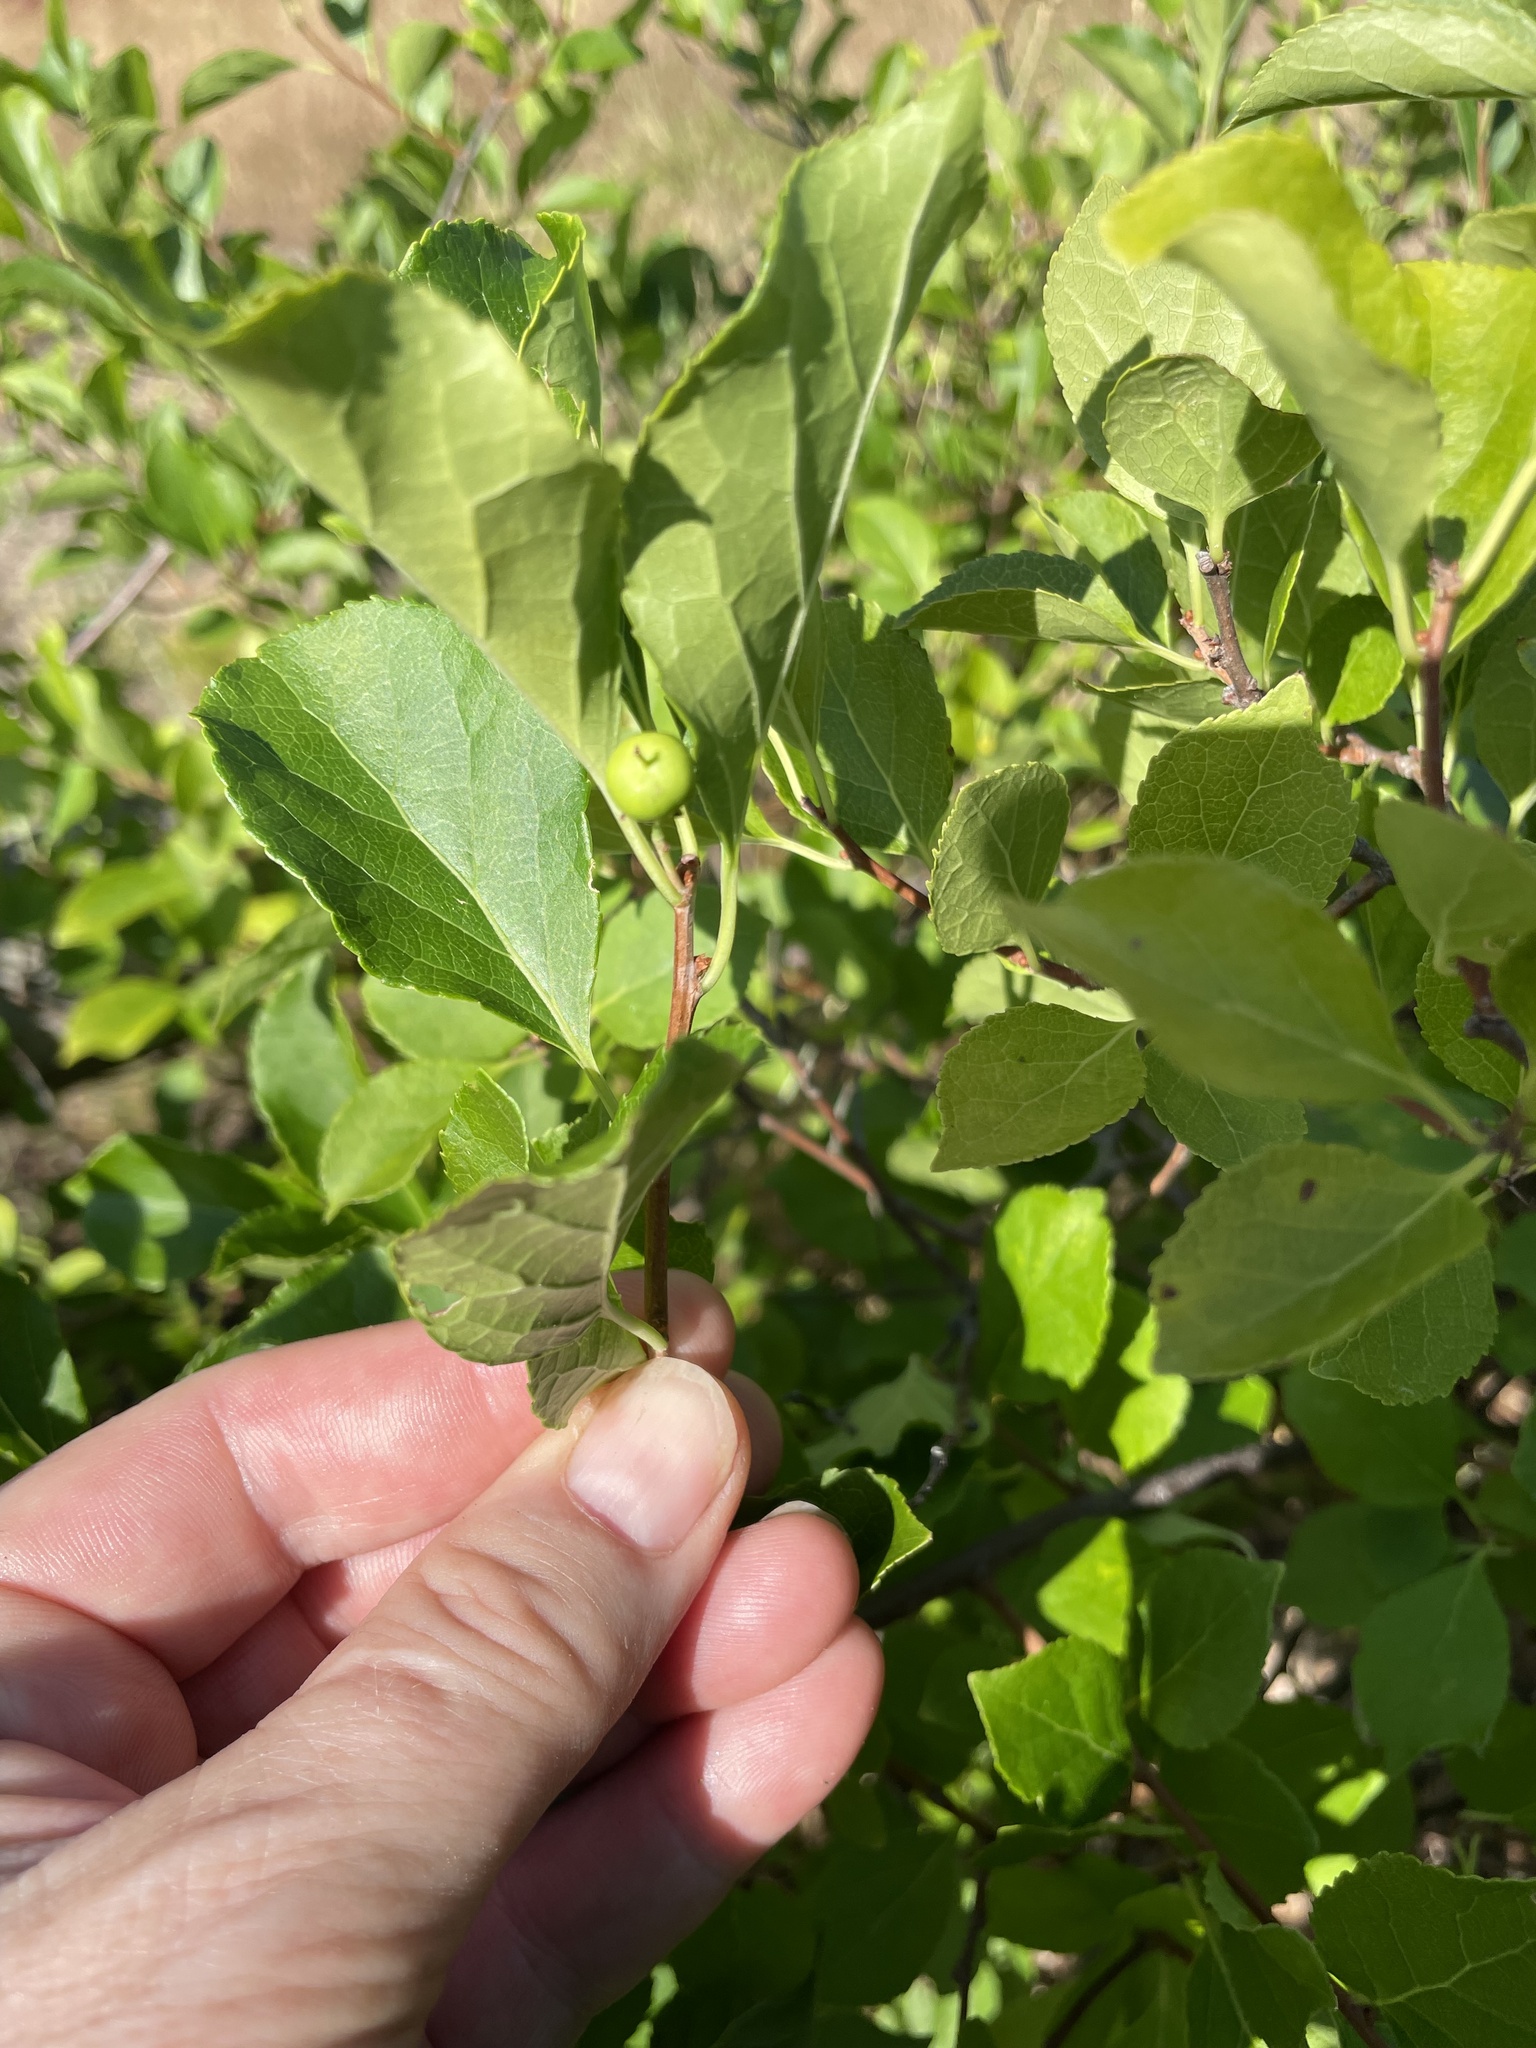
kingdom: Plantae
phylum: Tracheophyta
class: Magnoliopsida
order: Celastrales
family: Celastraceae
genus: Celastrus
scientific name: Celastrus orbiculatus
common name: Oriental bittersweet
